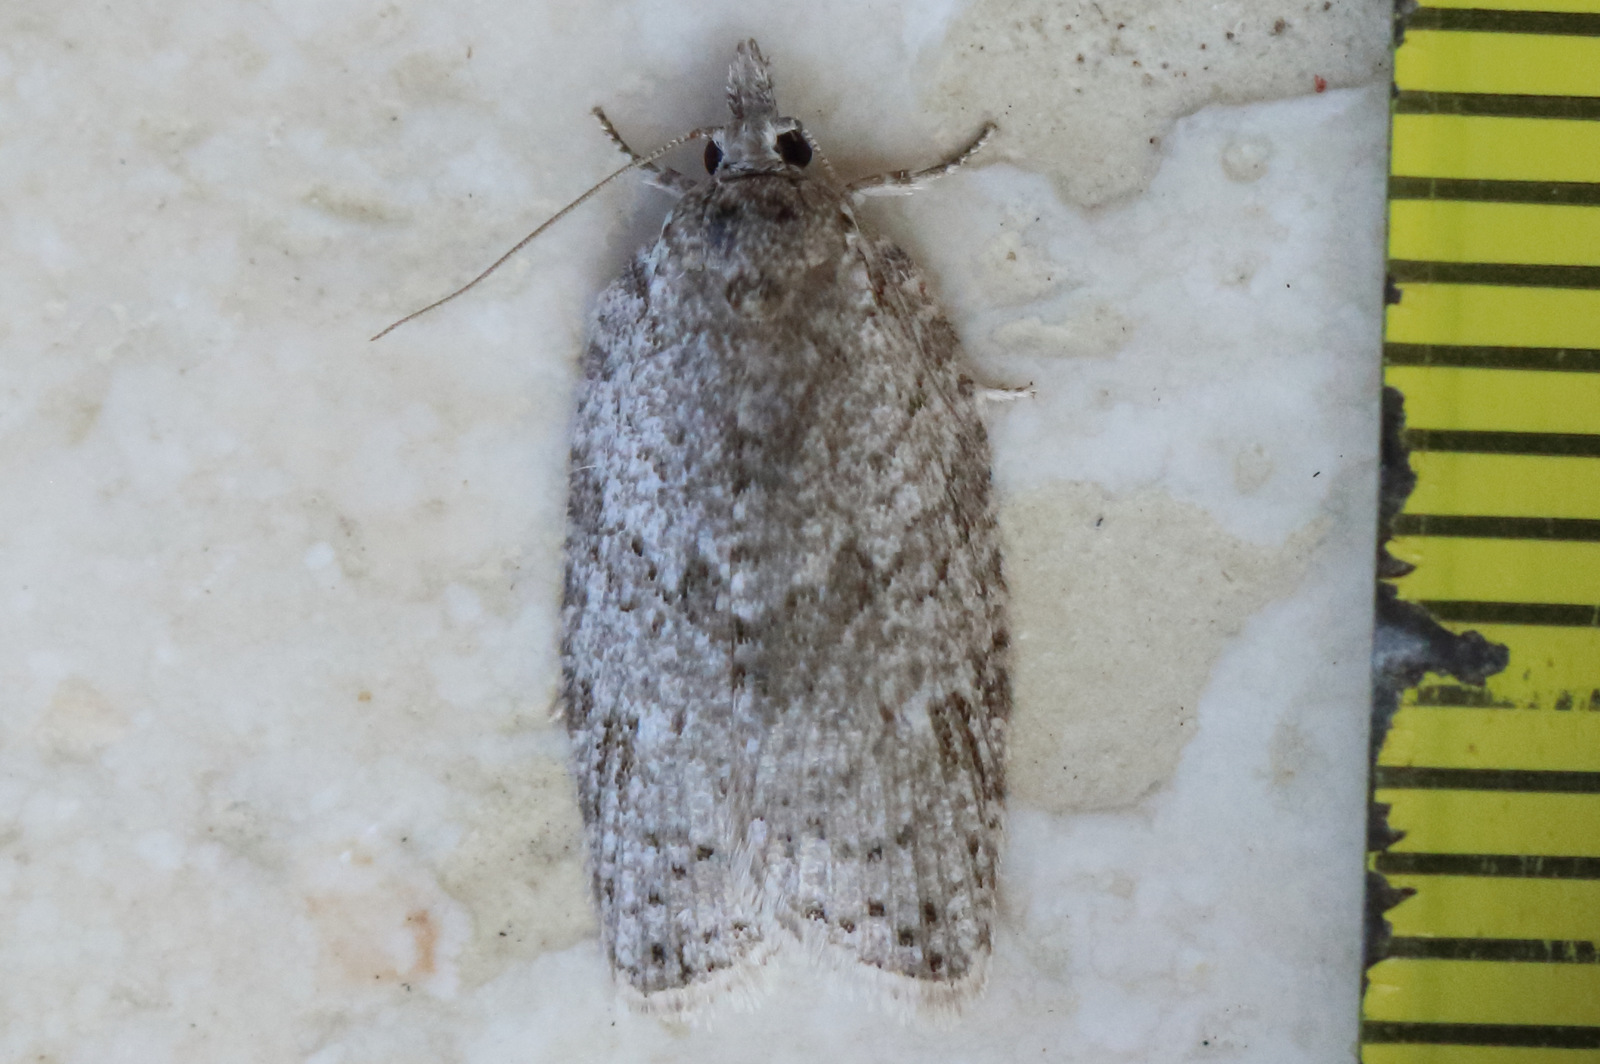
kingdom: Animalia
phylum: Arthropoda
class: Insecta
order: Lepidoptera
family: Tortricidae
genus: Isotenes
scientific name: Isotenes miserana
